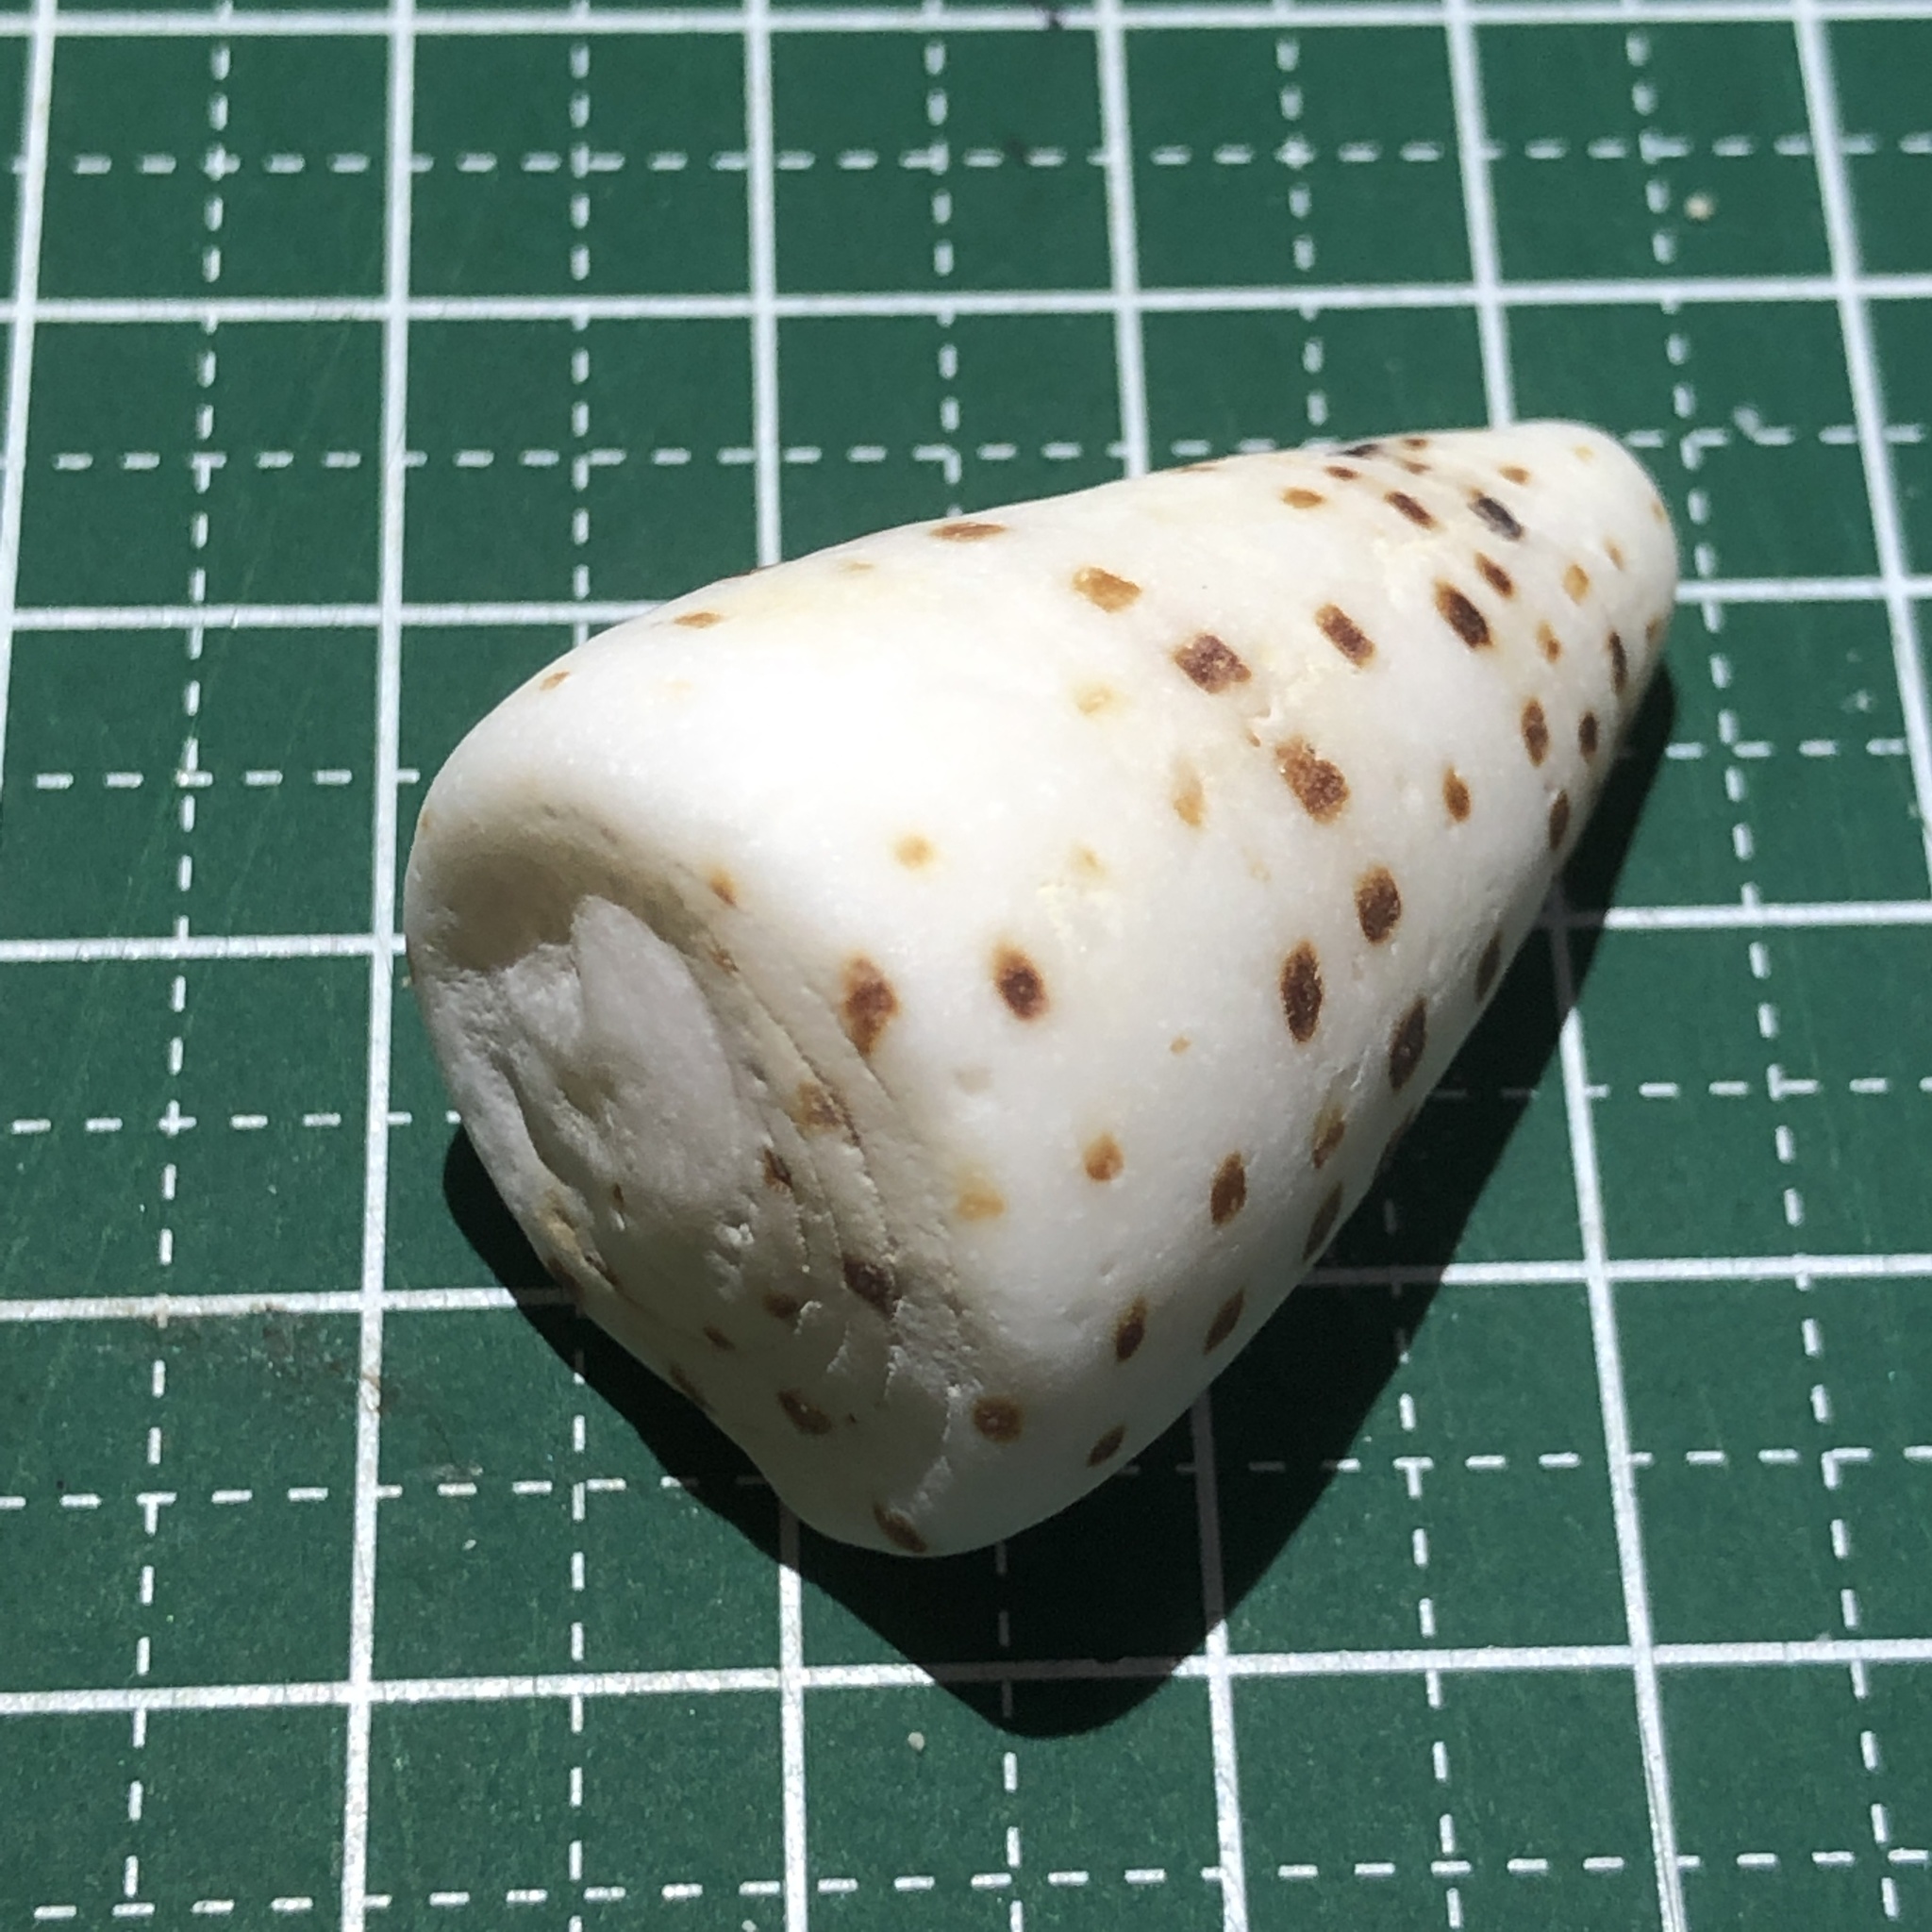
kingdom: Animalia
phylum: Mollusca
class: Gastropoda
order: Neogastropoda
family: Conidae
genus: Conus
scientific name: Conus eburneus
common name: Ivory cone
